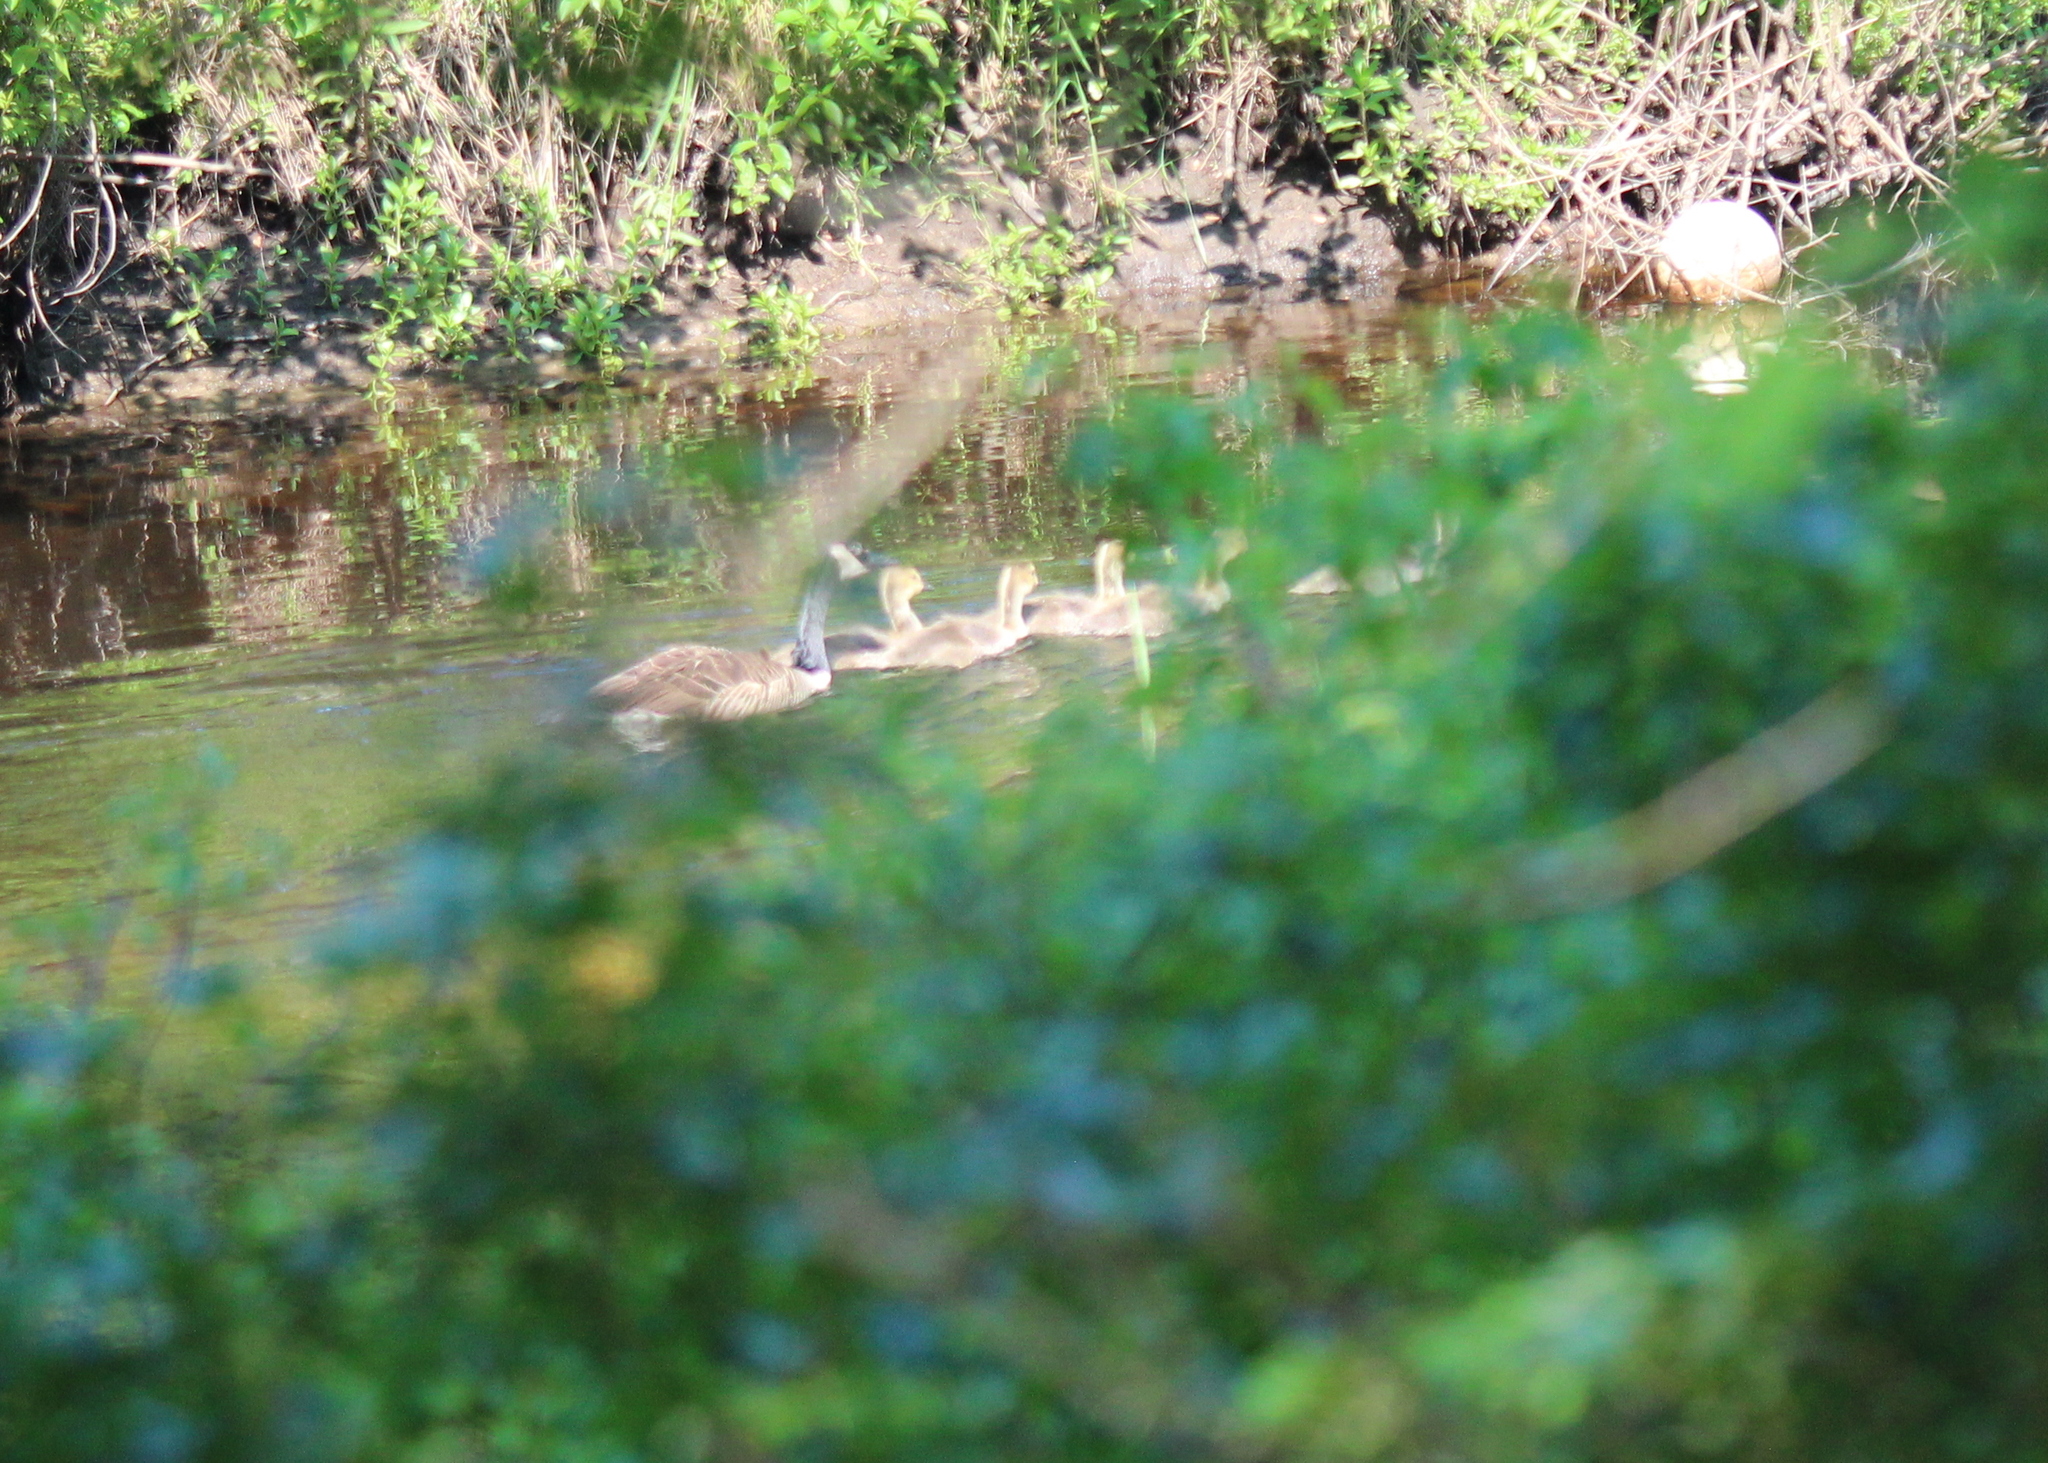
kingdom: Animalia
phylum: Chordata
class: Aves
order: Anseriformes
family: Anatidae
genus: Branta
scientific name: Branta canadensis
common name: Canada goose
